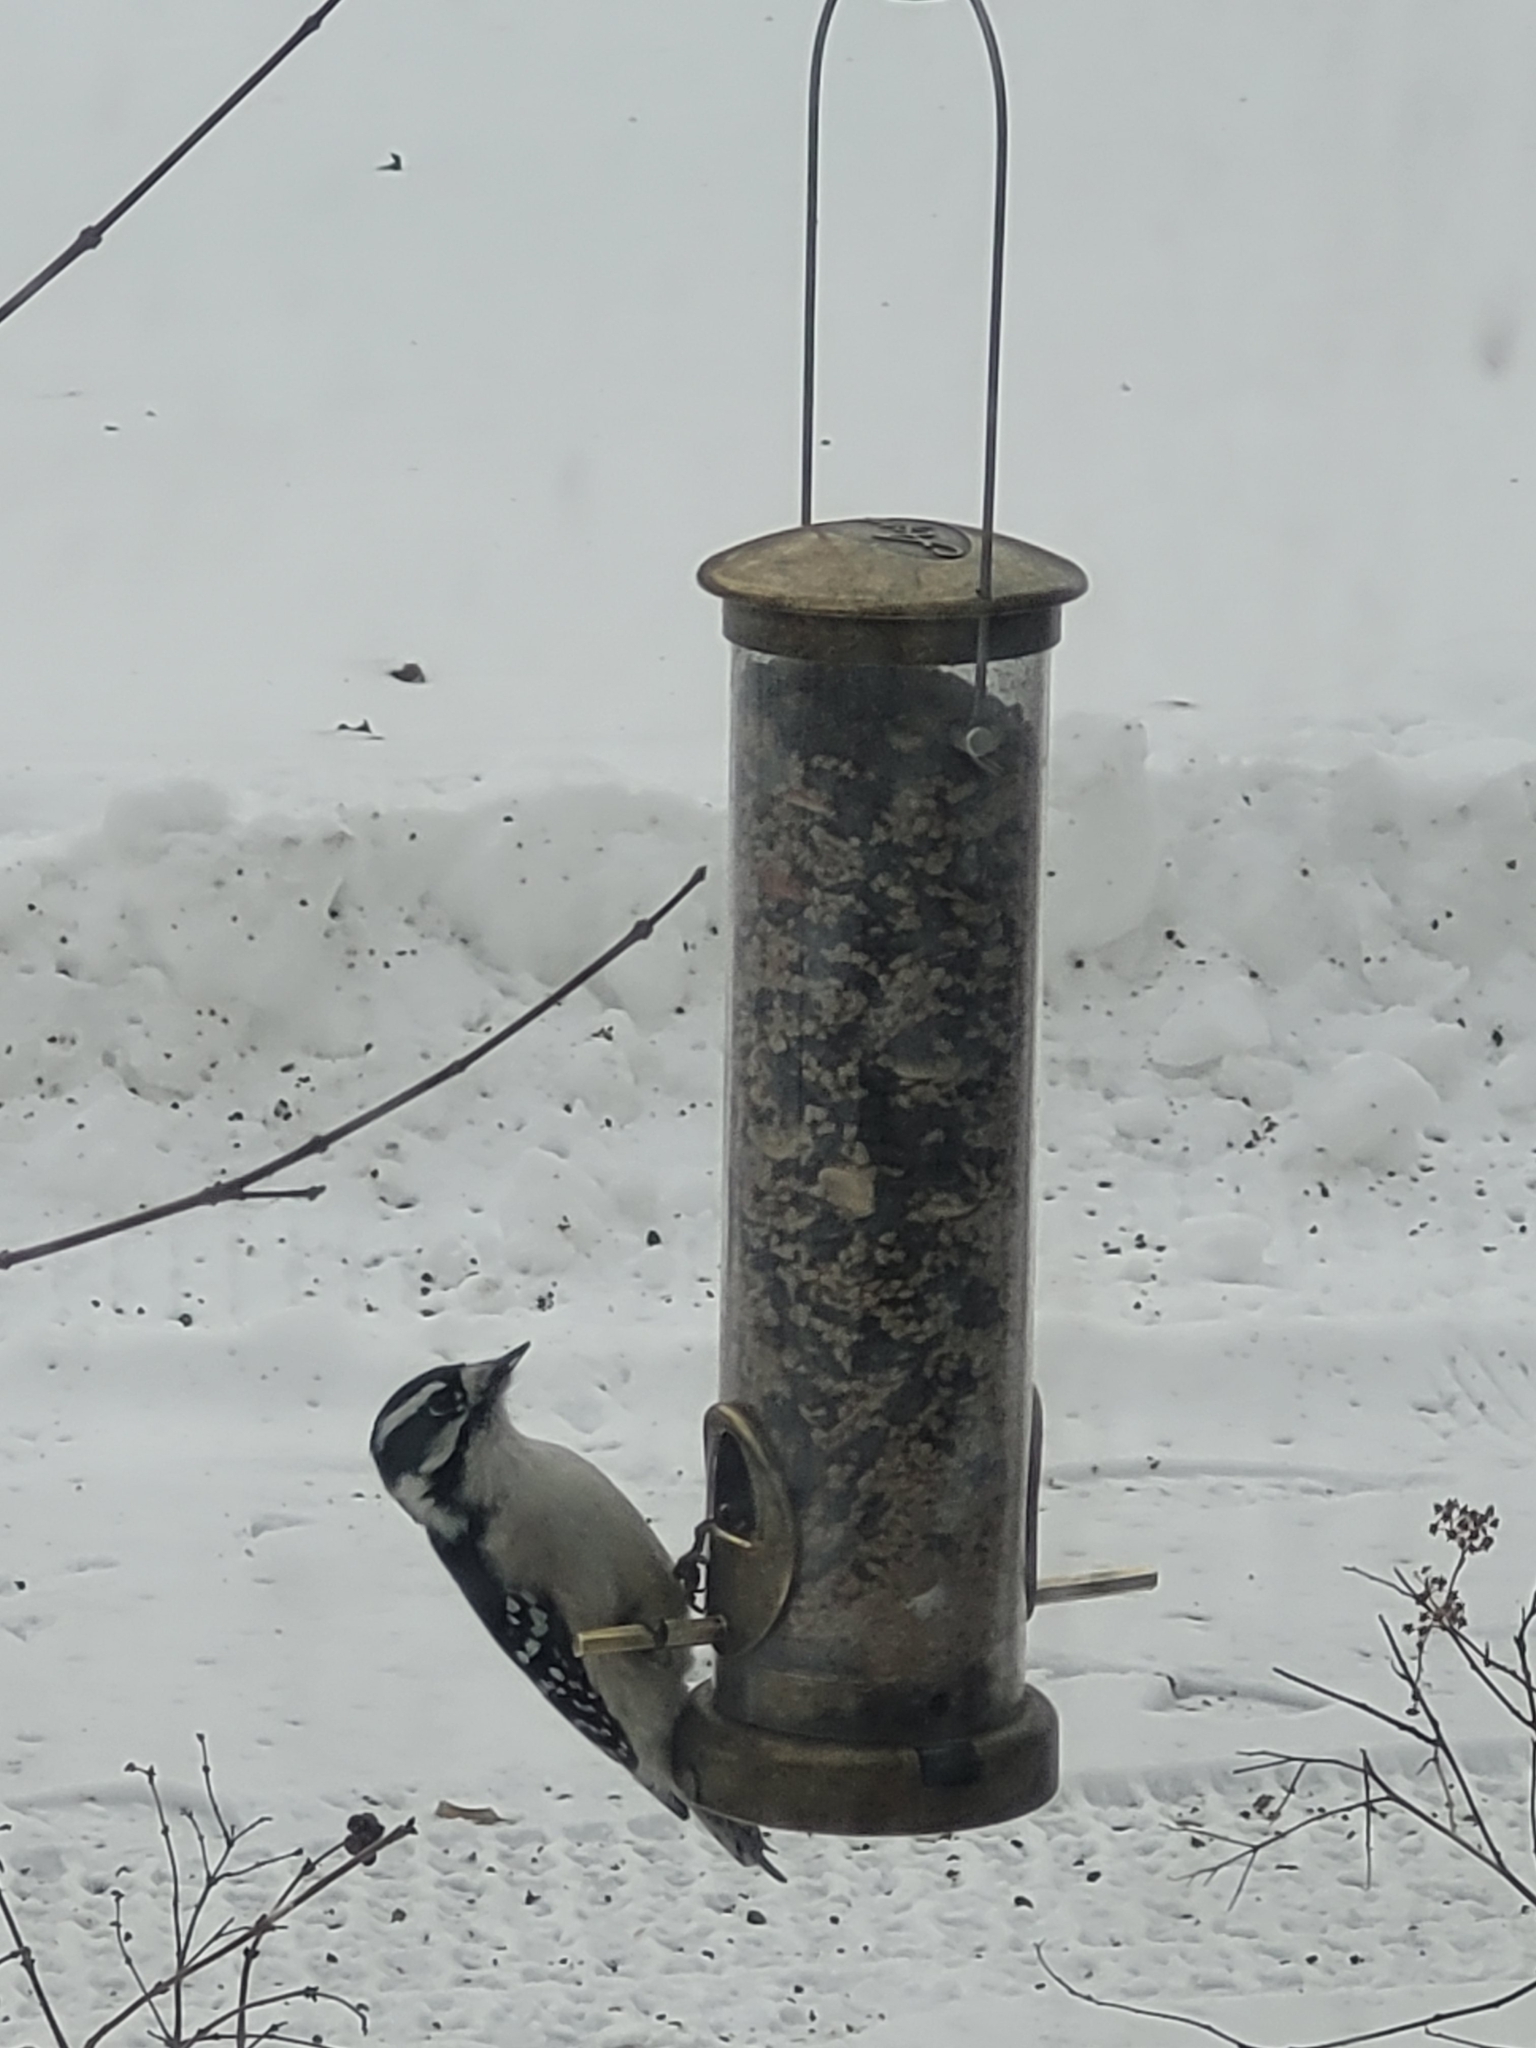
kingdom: Animalia
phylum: Chordata
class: Aves
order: Piciformes
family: Picidae
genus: Dryobates
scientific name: Dryobates pubescens
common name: Downy woodpecker
